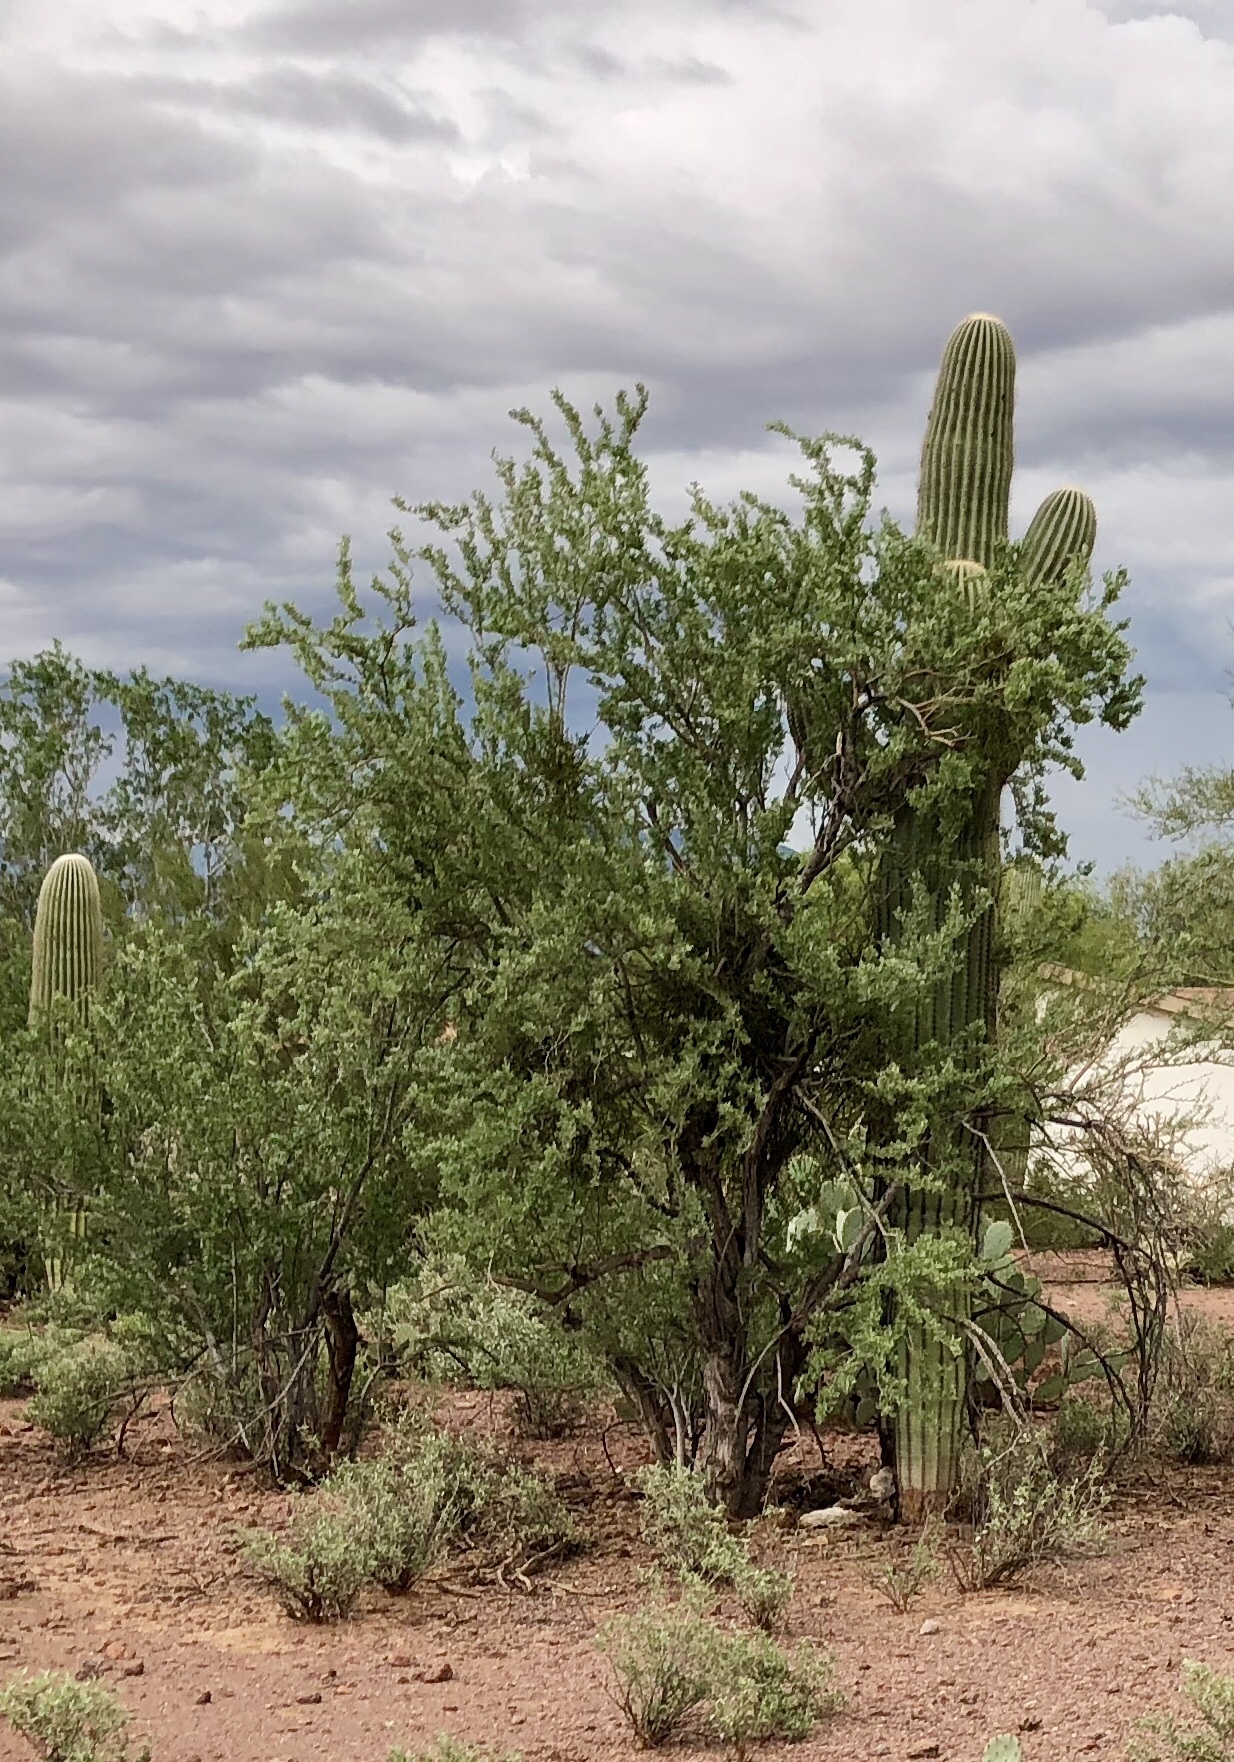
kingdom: Plantae
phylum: Tracheophyta
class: Magnoliopsida
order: Fabales
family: Fabaceae
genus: Olneya
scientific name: Olneya tesota
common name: Desert ironwood
